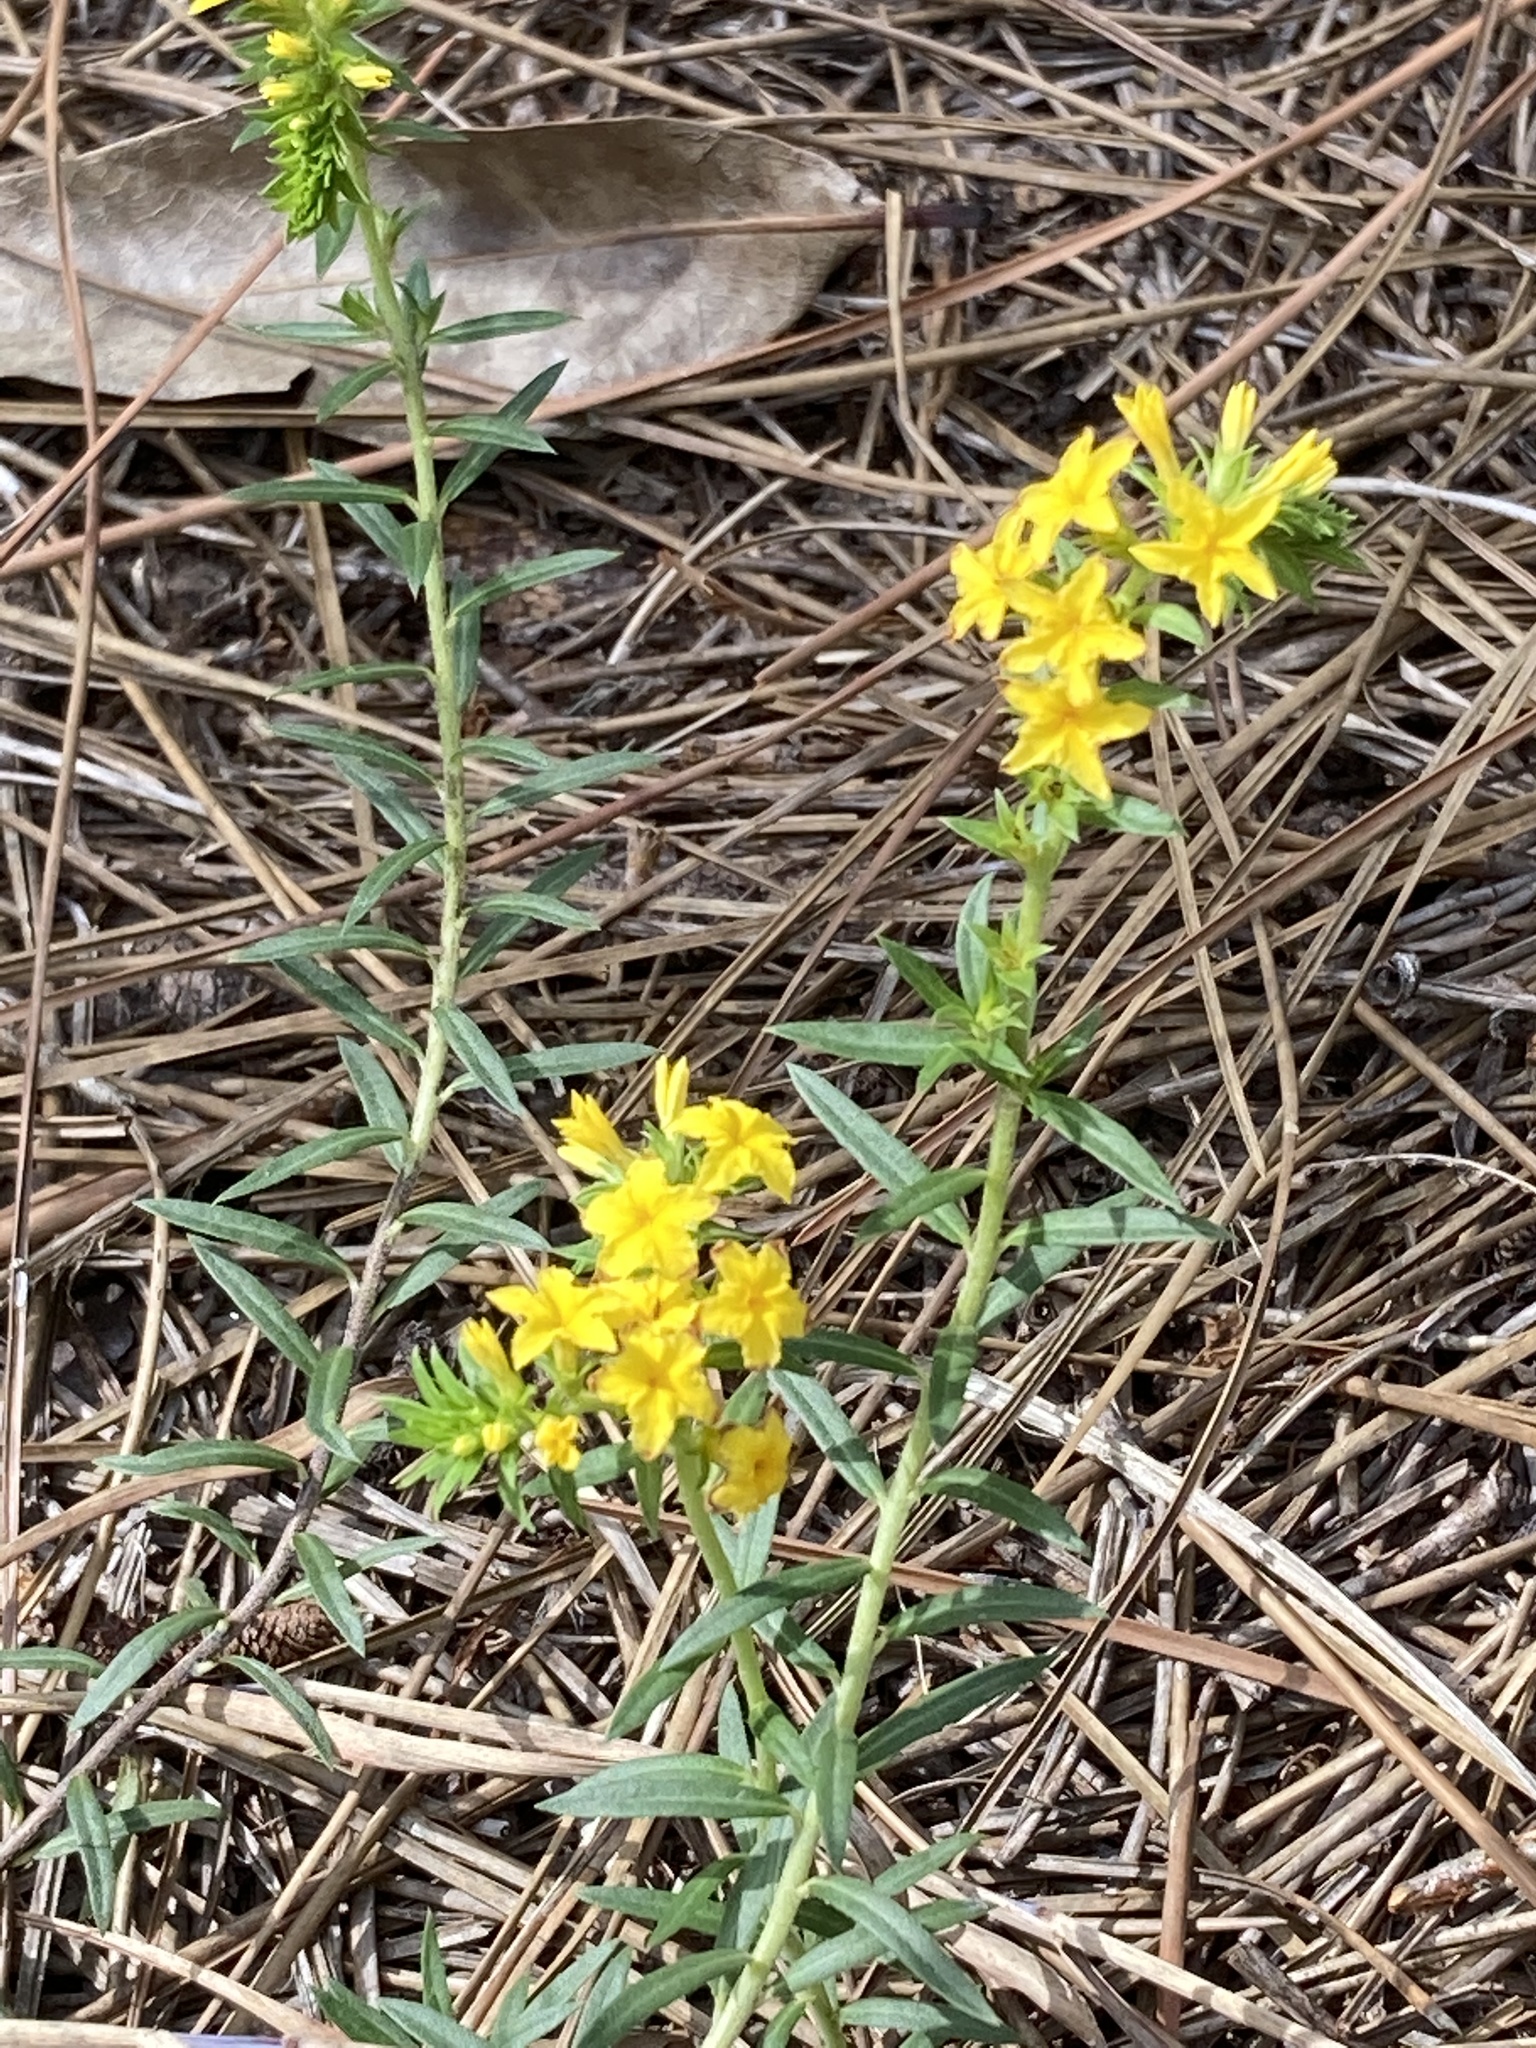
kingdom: Plantae
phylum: Tracheophyta
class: Magnoliopsida
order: Boraginales
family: Heliotropiaceae
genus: Euploca
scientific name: Euploca polyphylla
